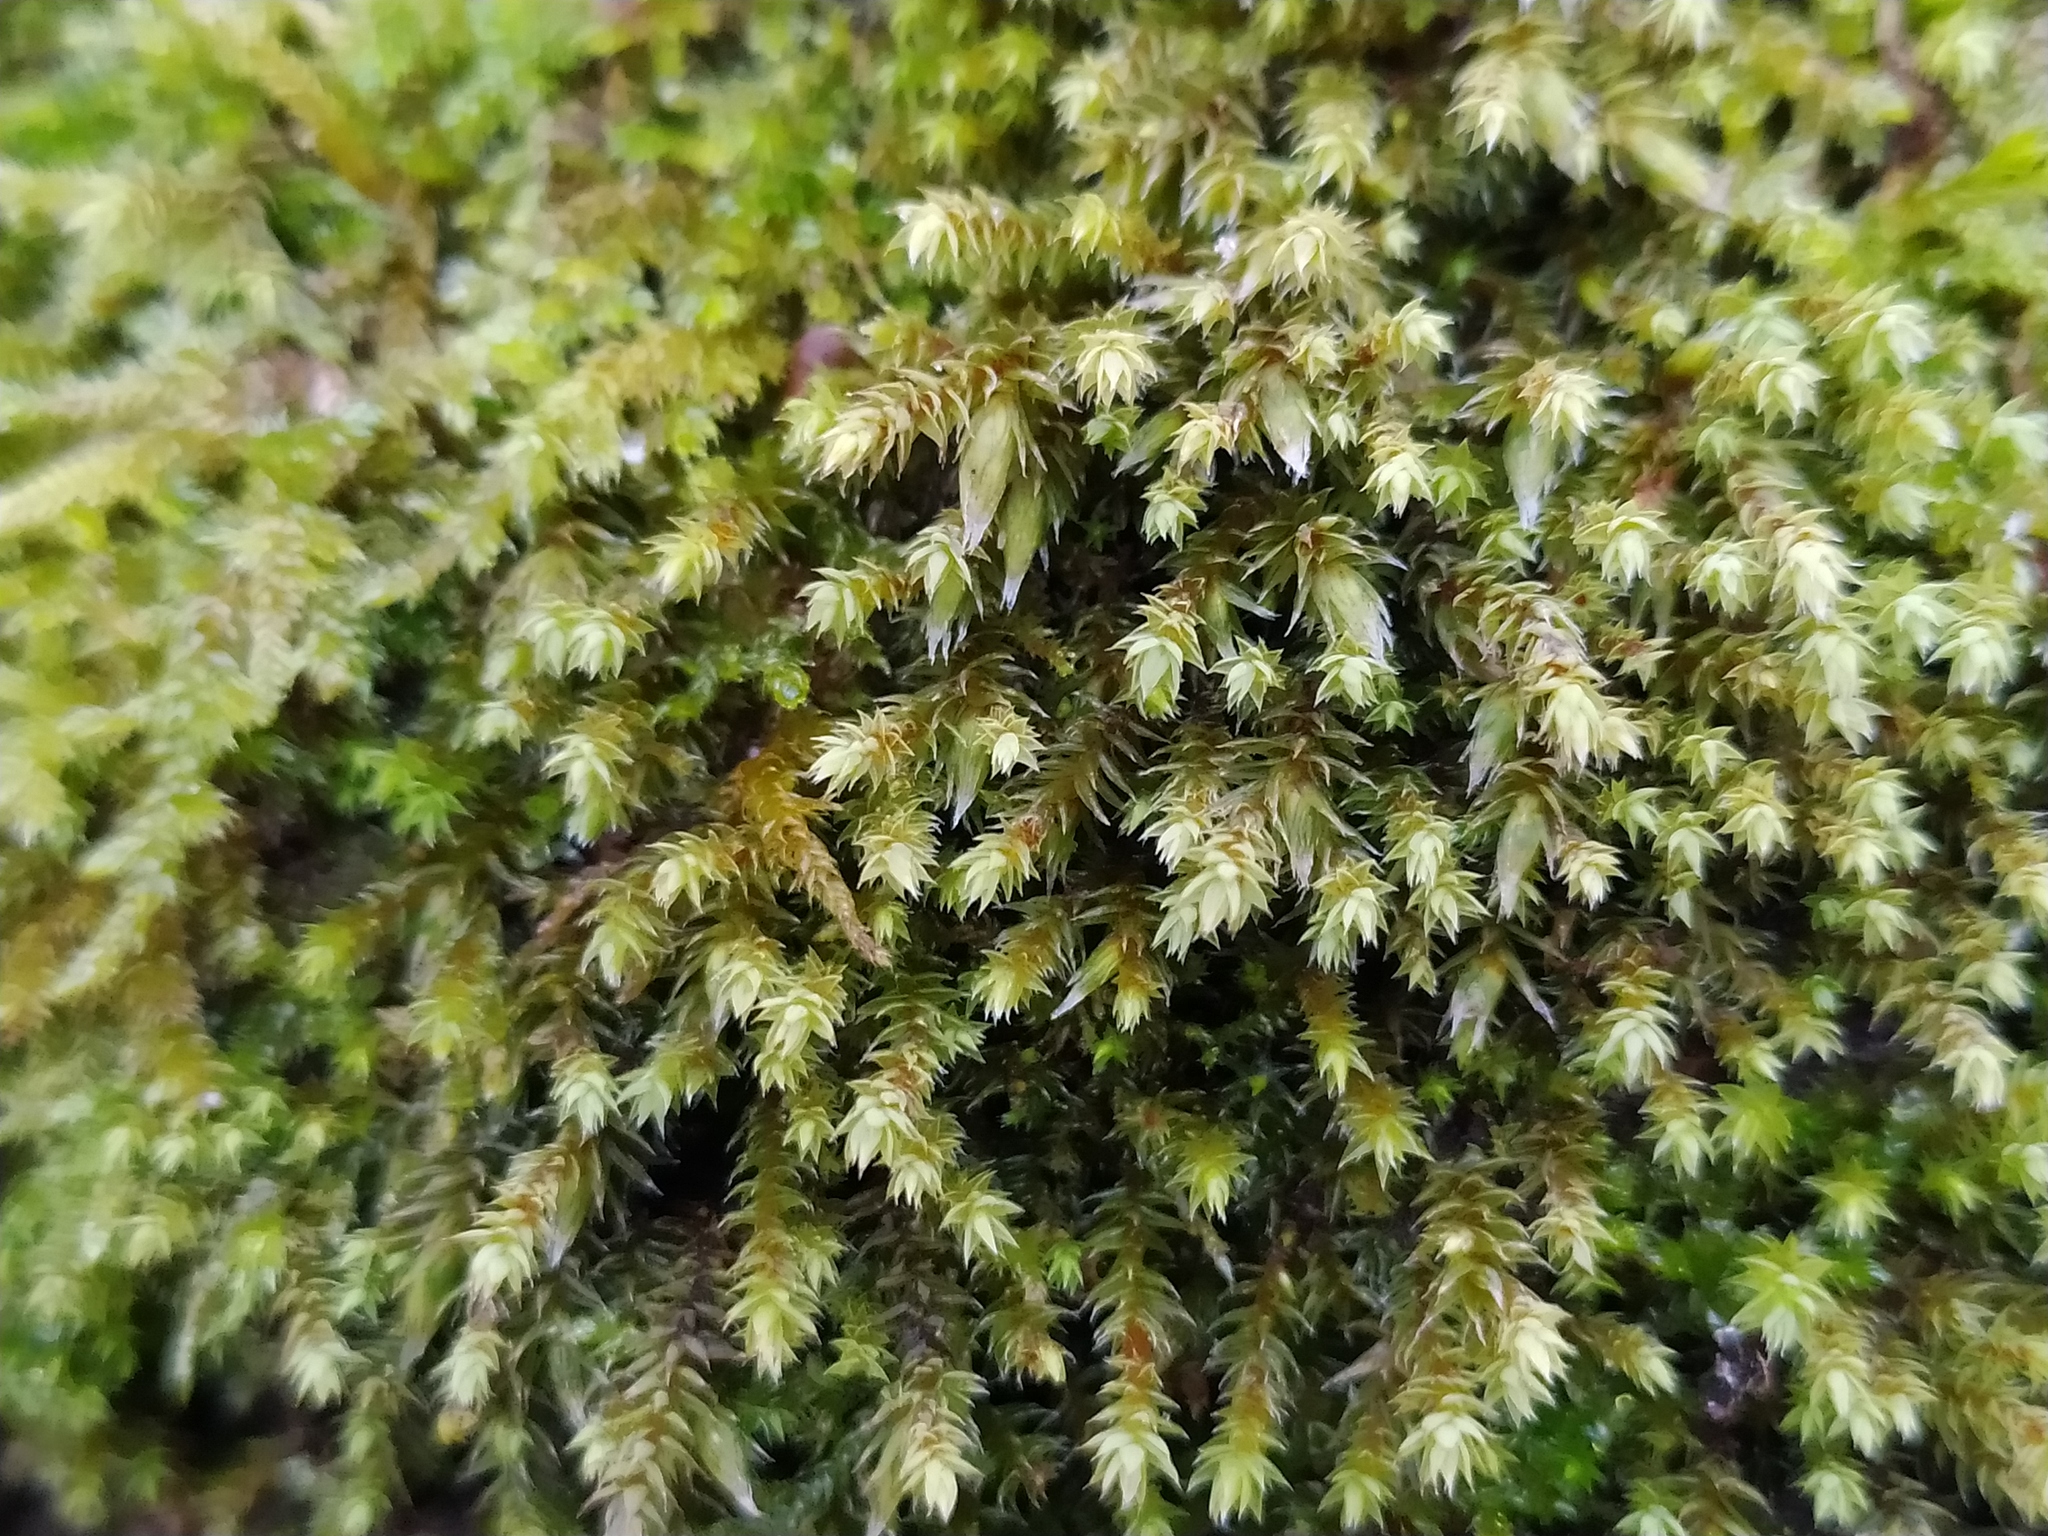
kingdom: Plantae
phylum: Bryophyta
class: Bryopsida
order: Hedwigiales
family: Hedwigiaceae
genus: Hedwigia
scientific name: Hedwigia ciliata
